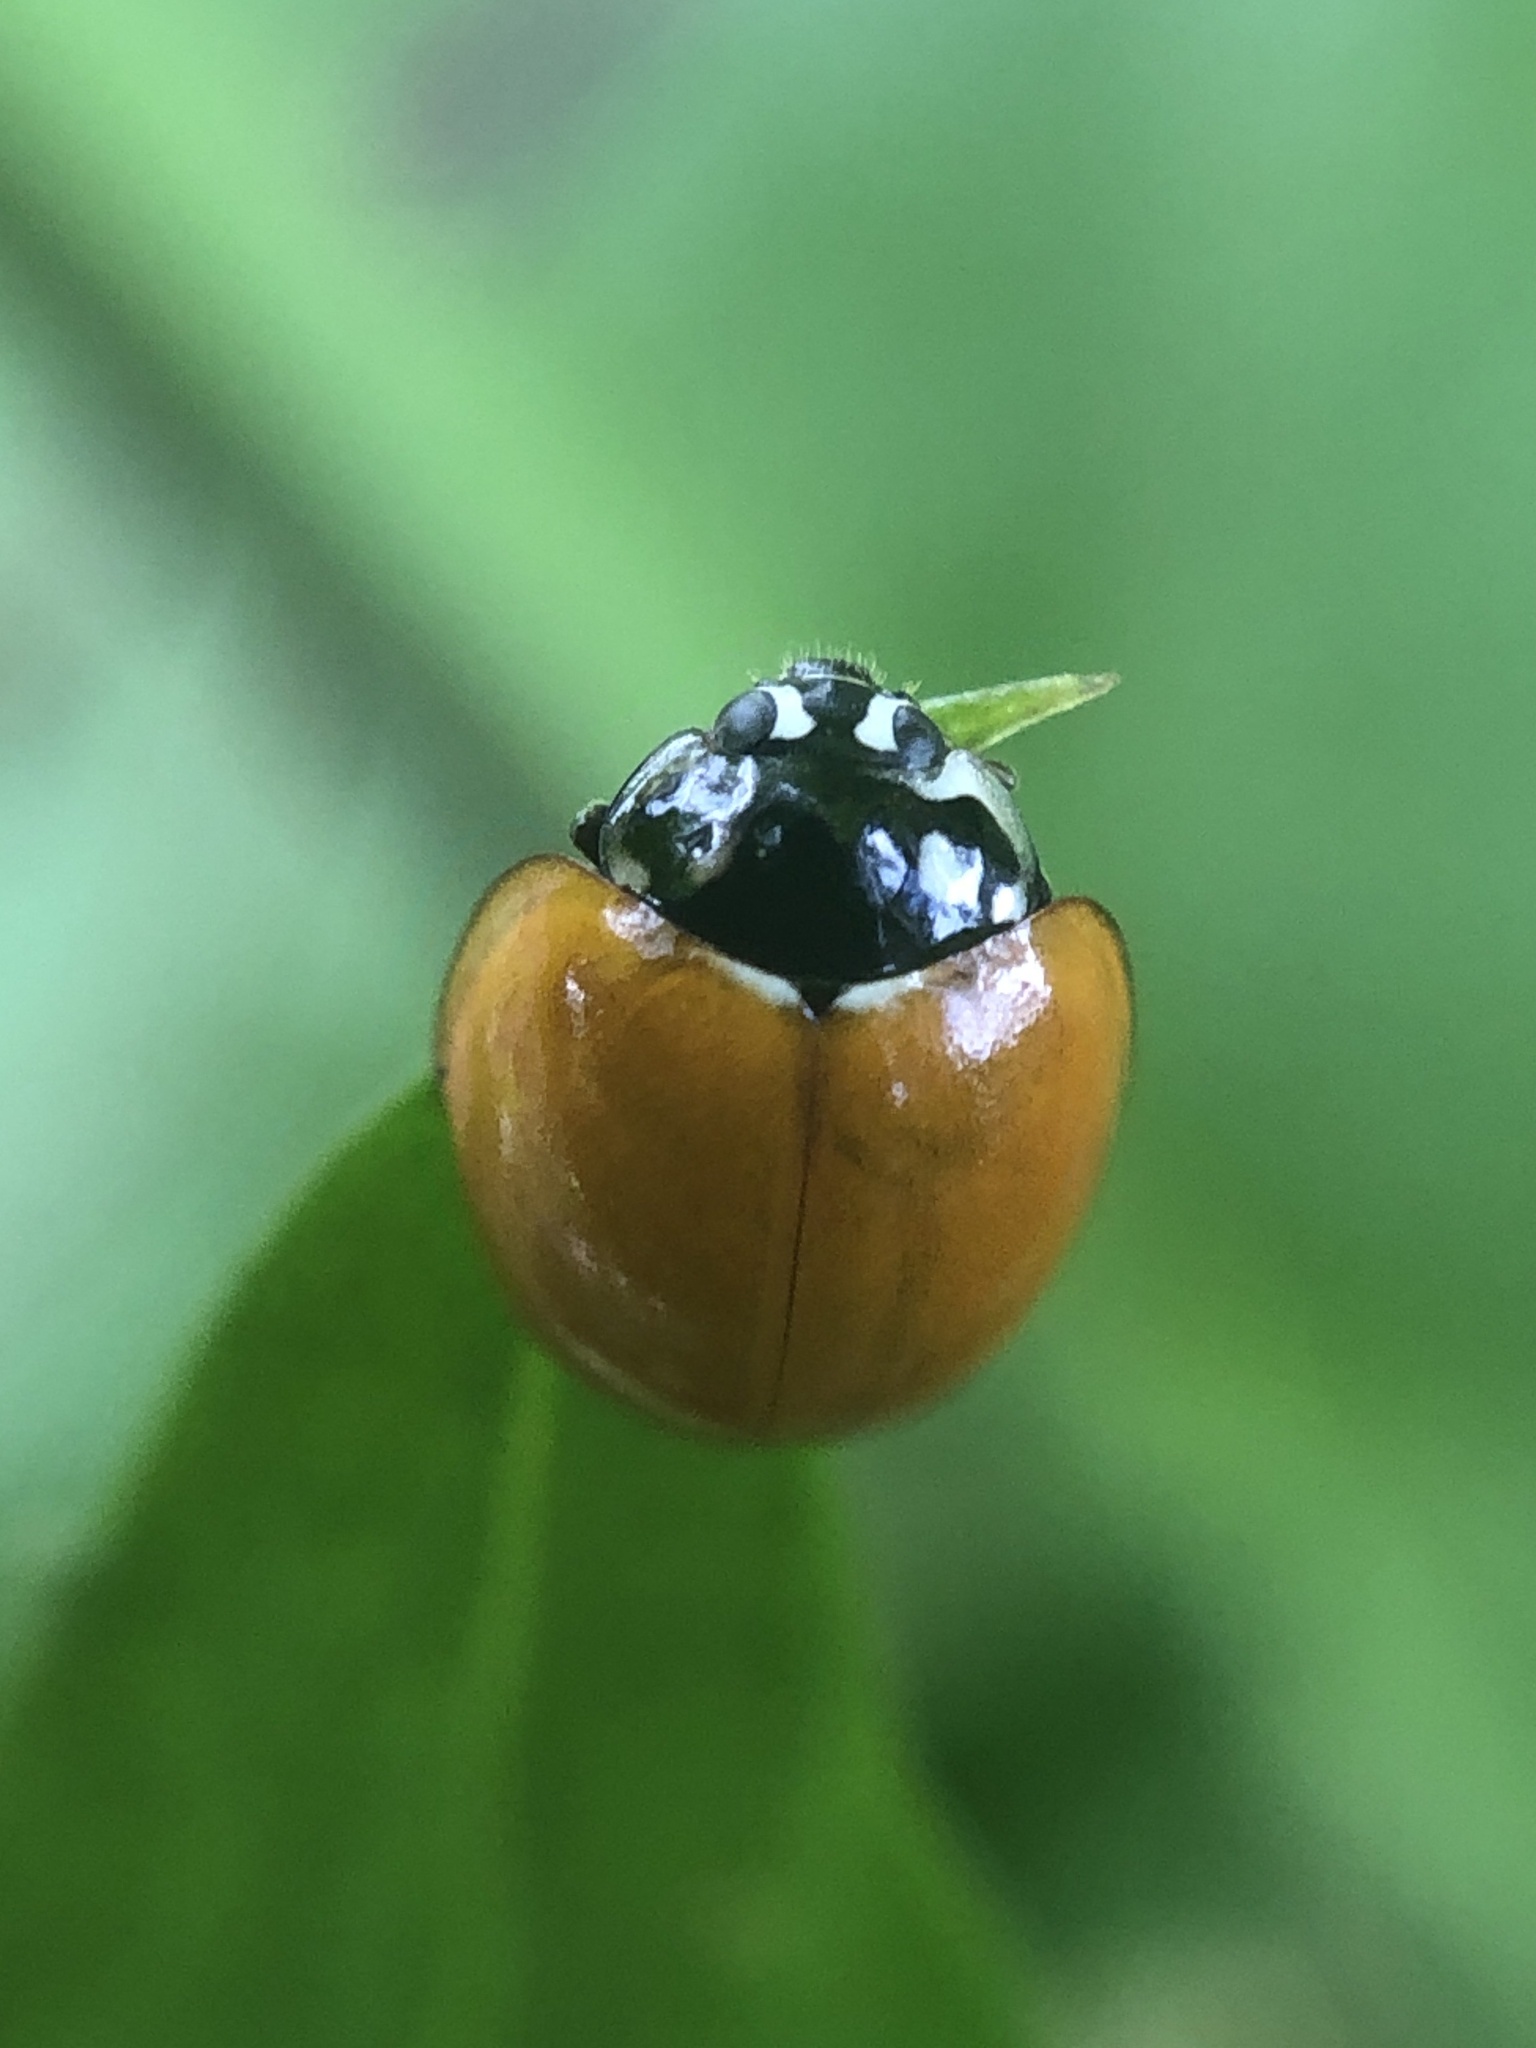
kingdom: Animalia
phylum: Arthropoda
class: Insecta
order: Coleoptera
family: Coccinellidae
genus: Cycloneda
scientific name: Cycloneda sanguinea
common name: Ladybird beetle
